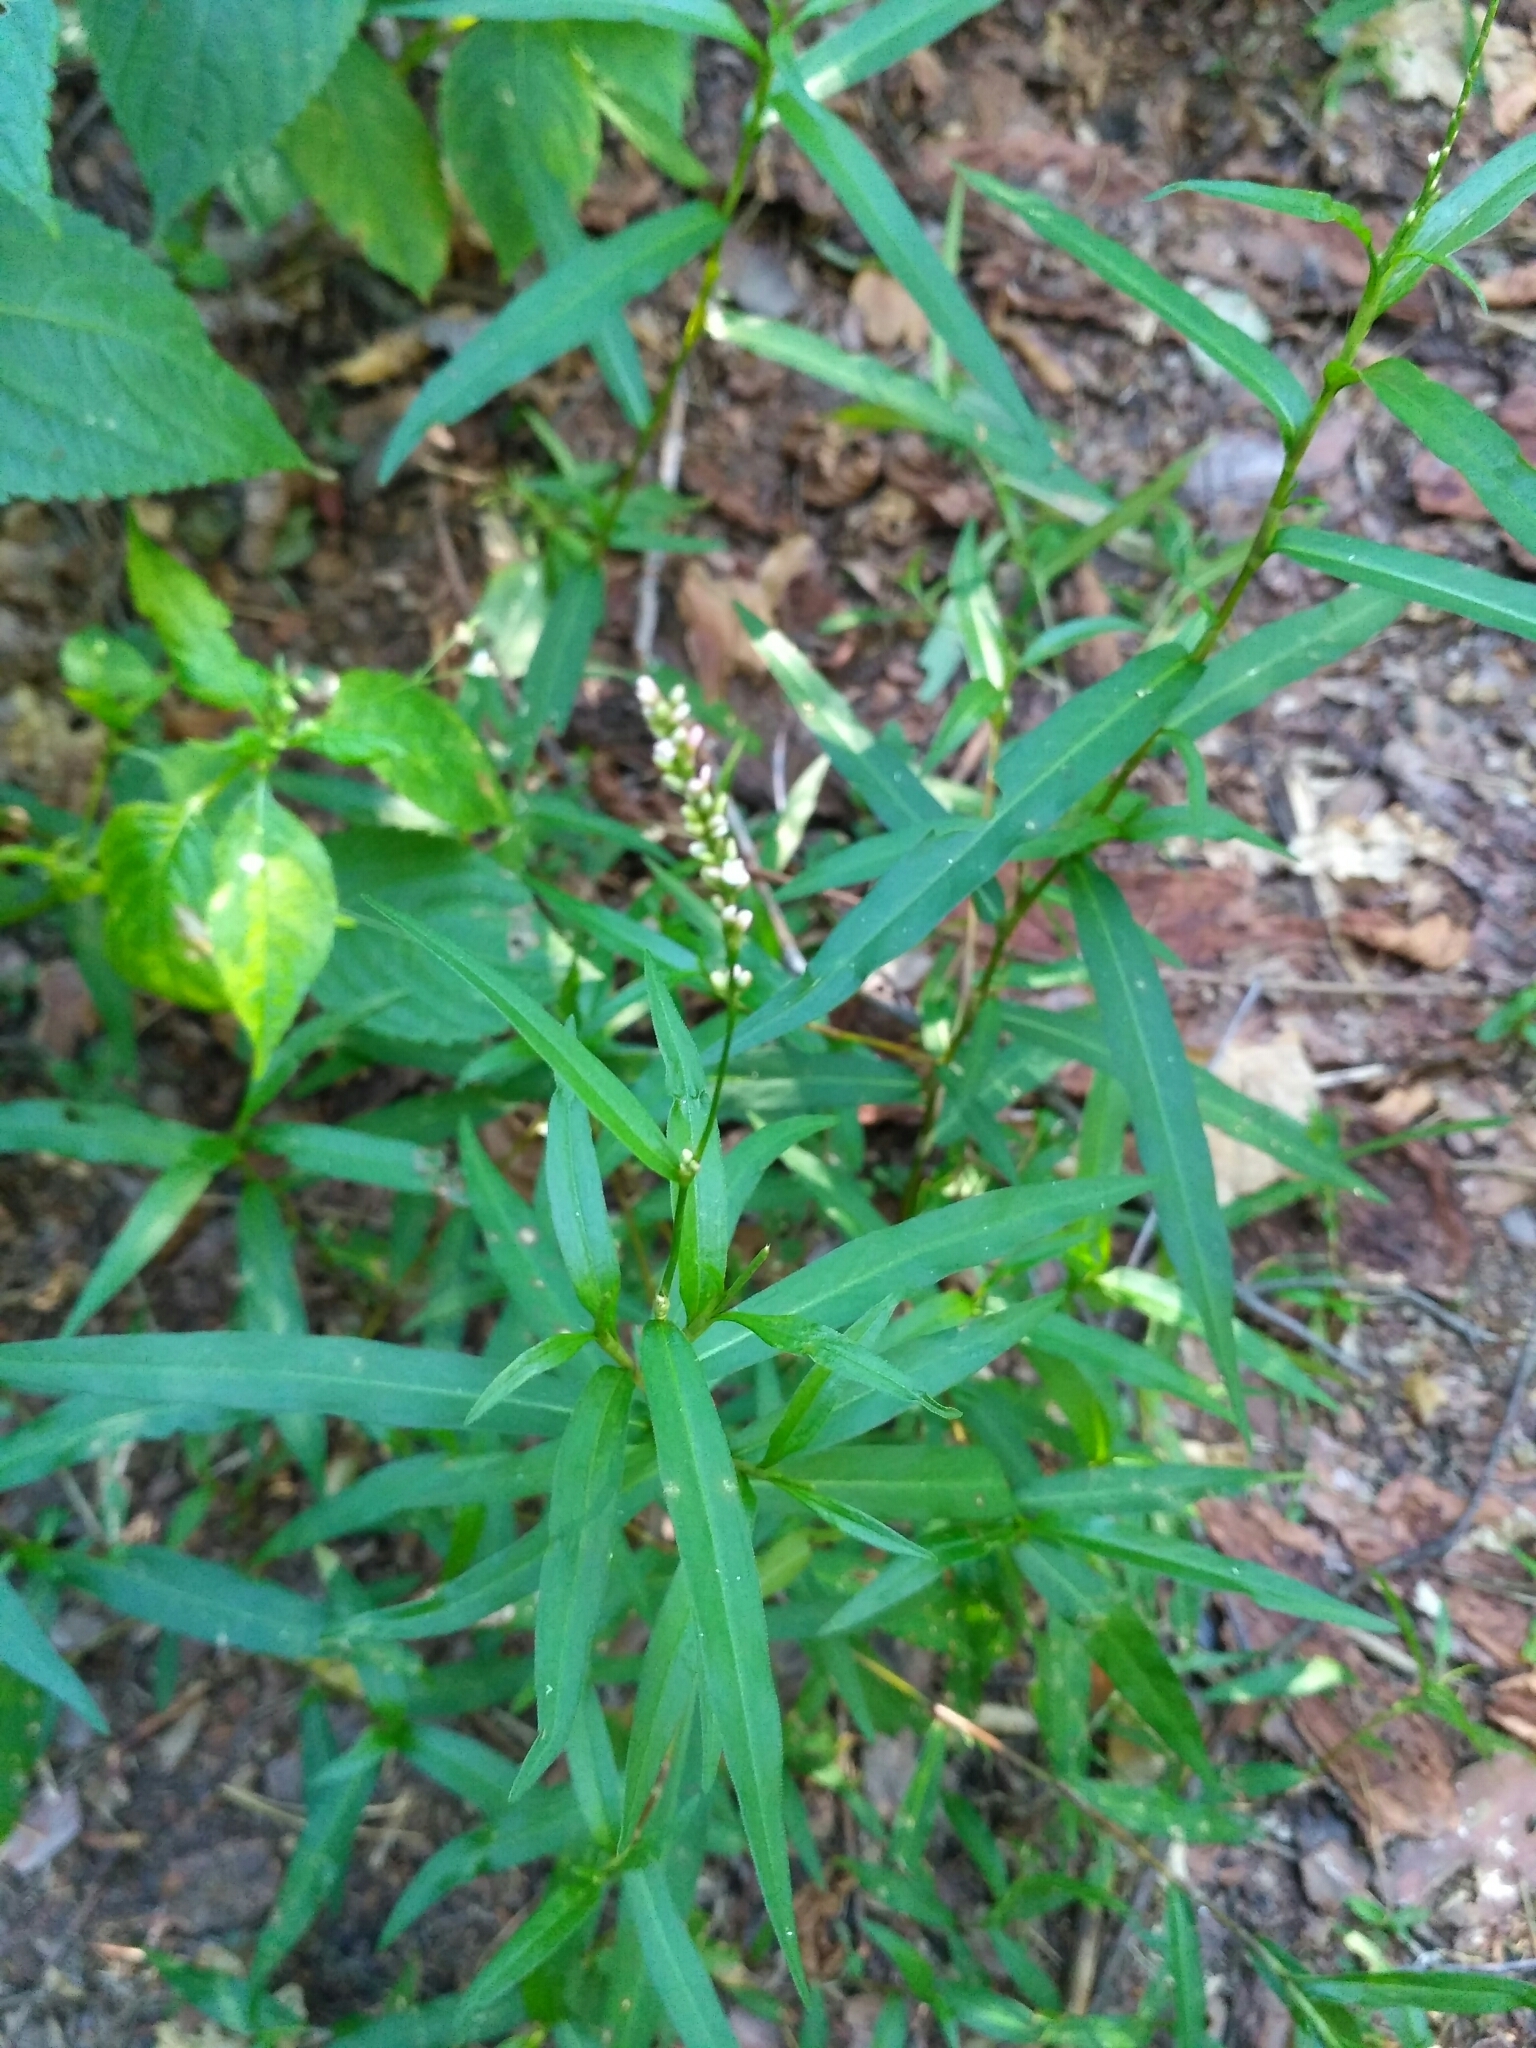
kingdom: Plantae
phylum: Tracheophyta
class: Magnoliopsida
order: Caryophyllales
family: Polygonaceae
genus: Persicaria
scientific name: Persicaria minor
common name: Small water-pepper
